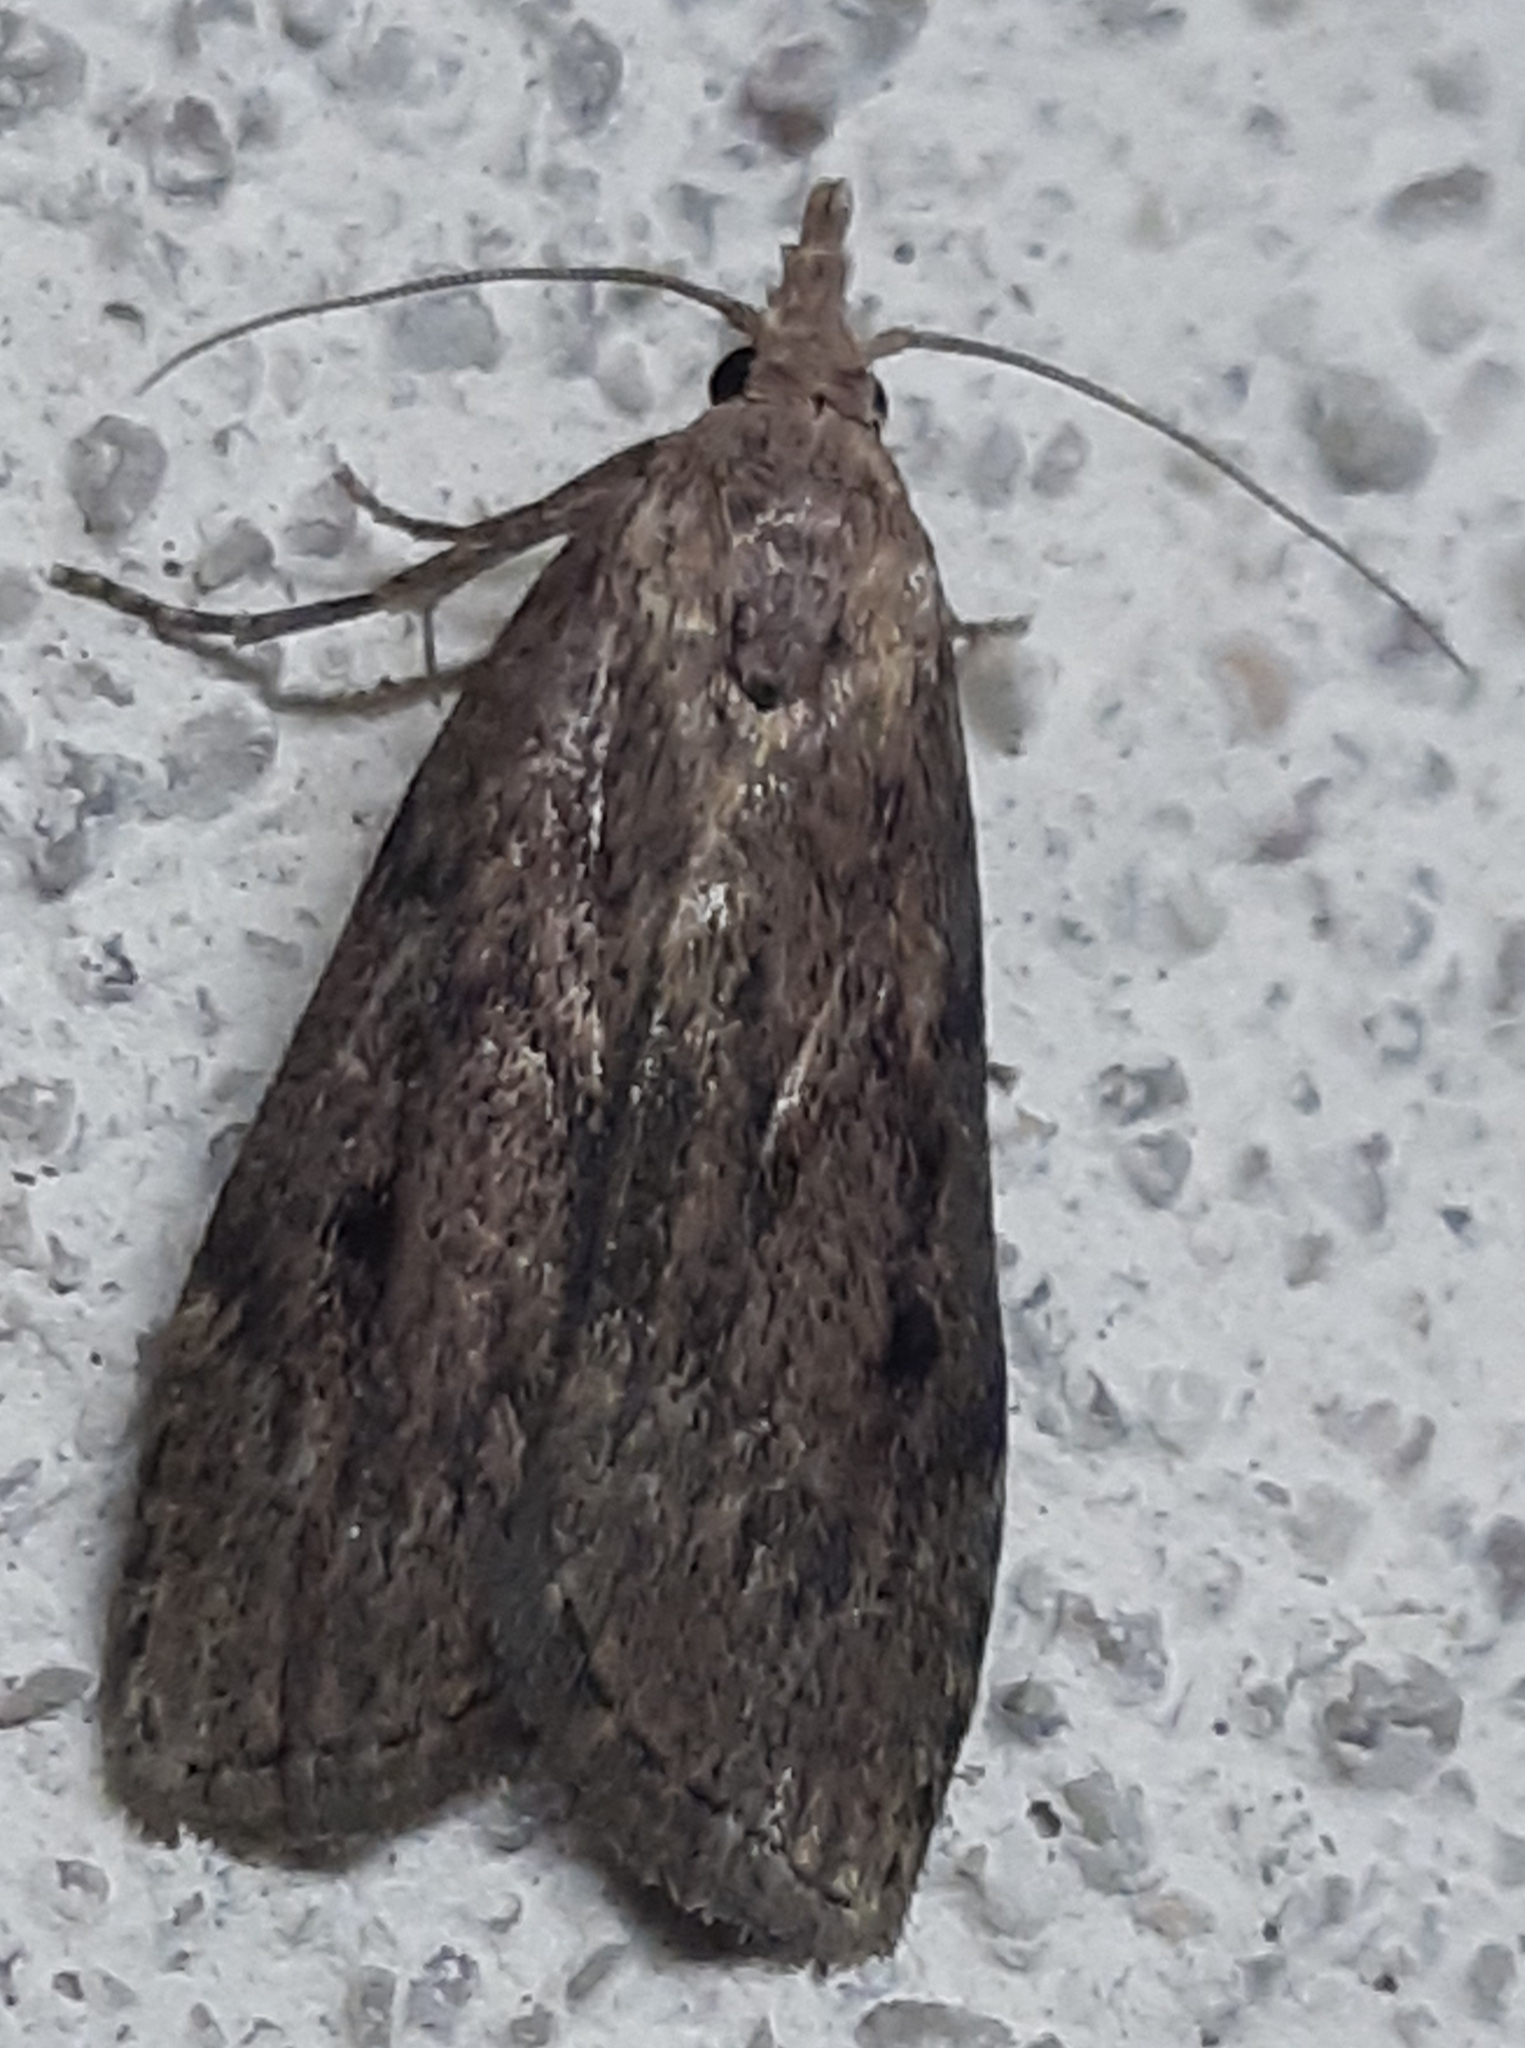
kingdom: Animalia
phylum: Arthropoda
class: Insecta
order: Lepidoptera
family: Pyralidae
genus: Aphomia
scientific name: Aphomia sociella
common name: Bee moth
